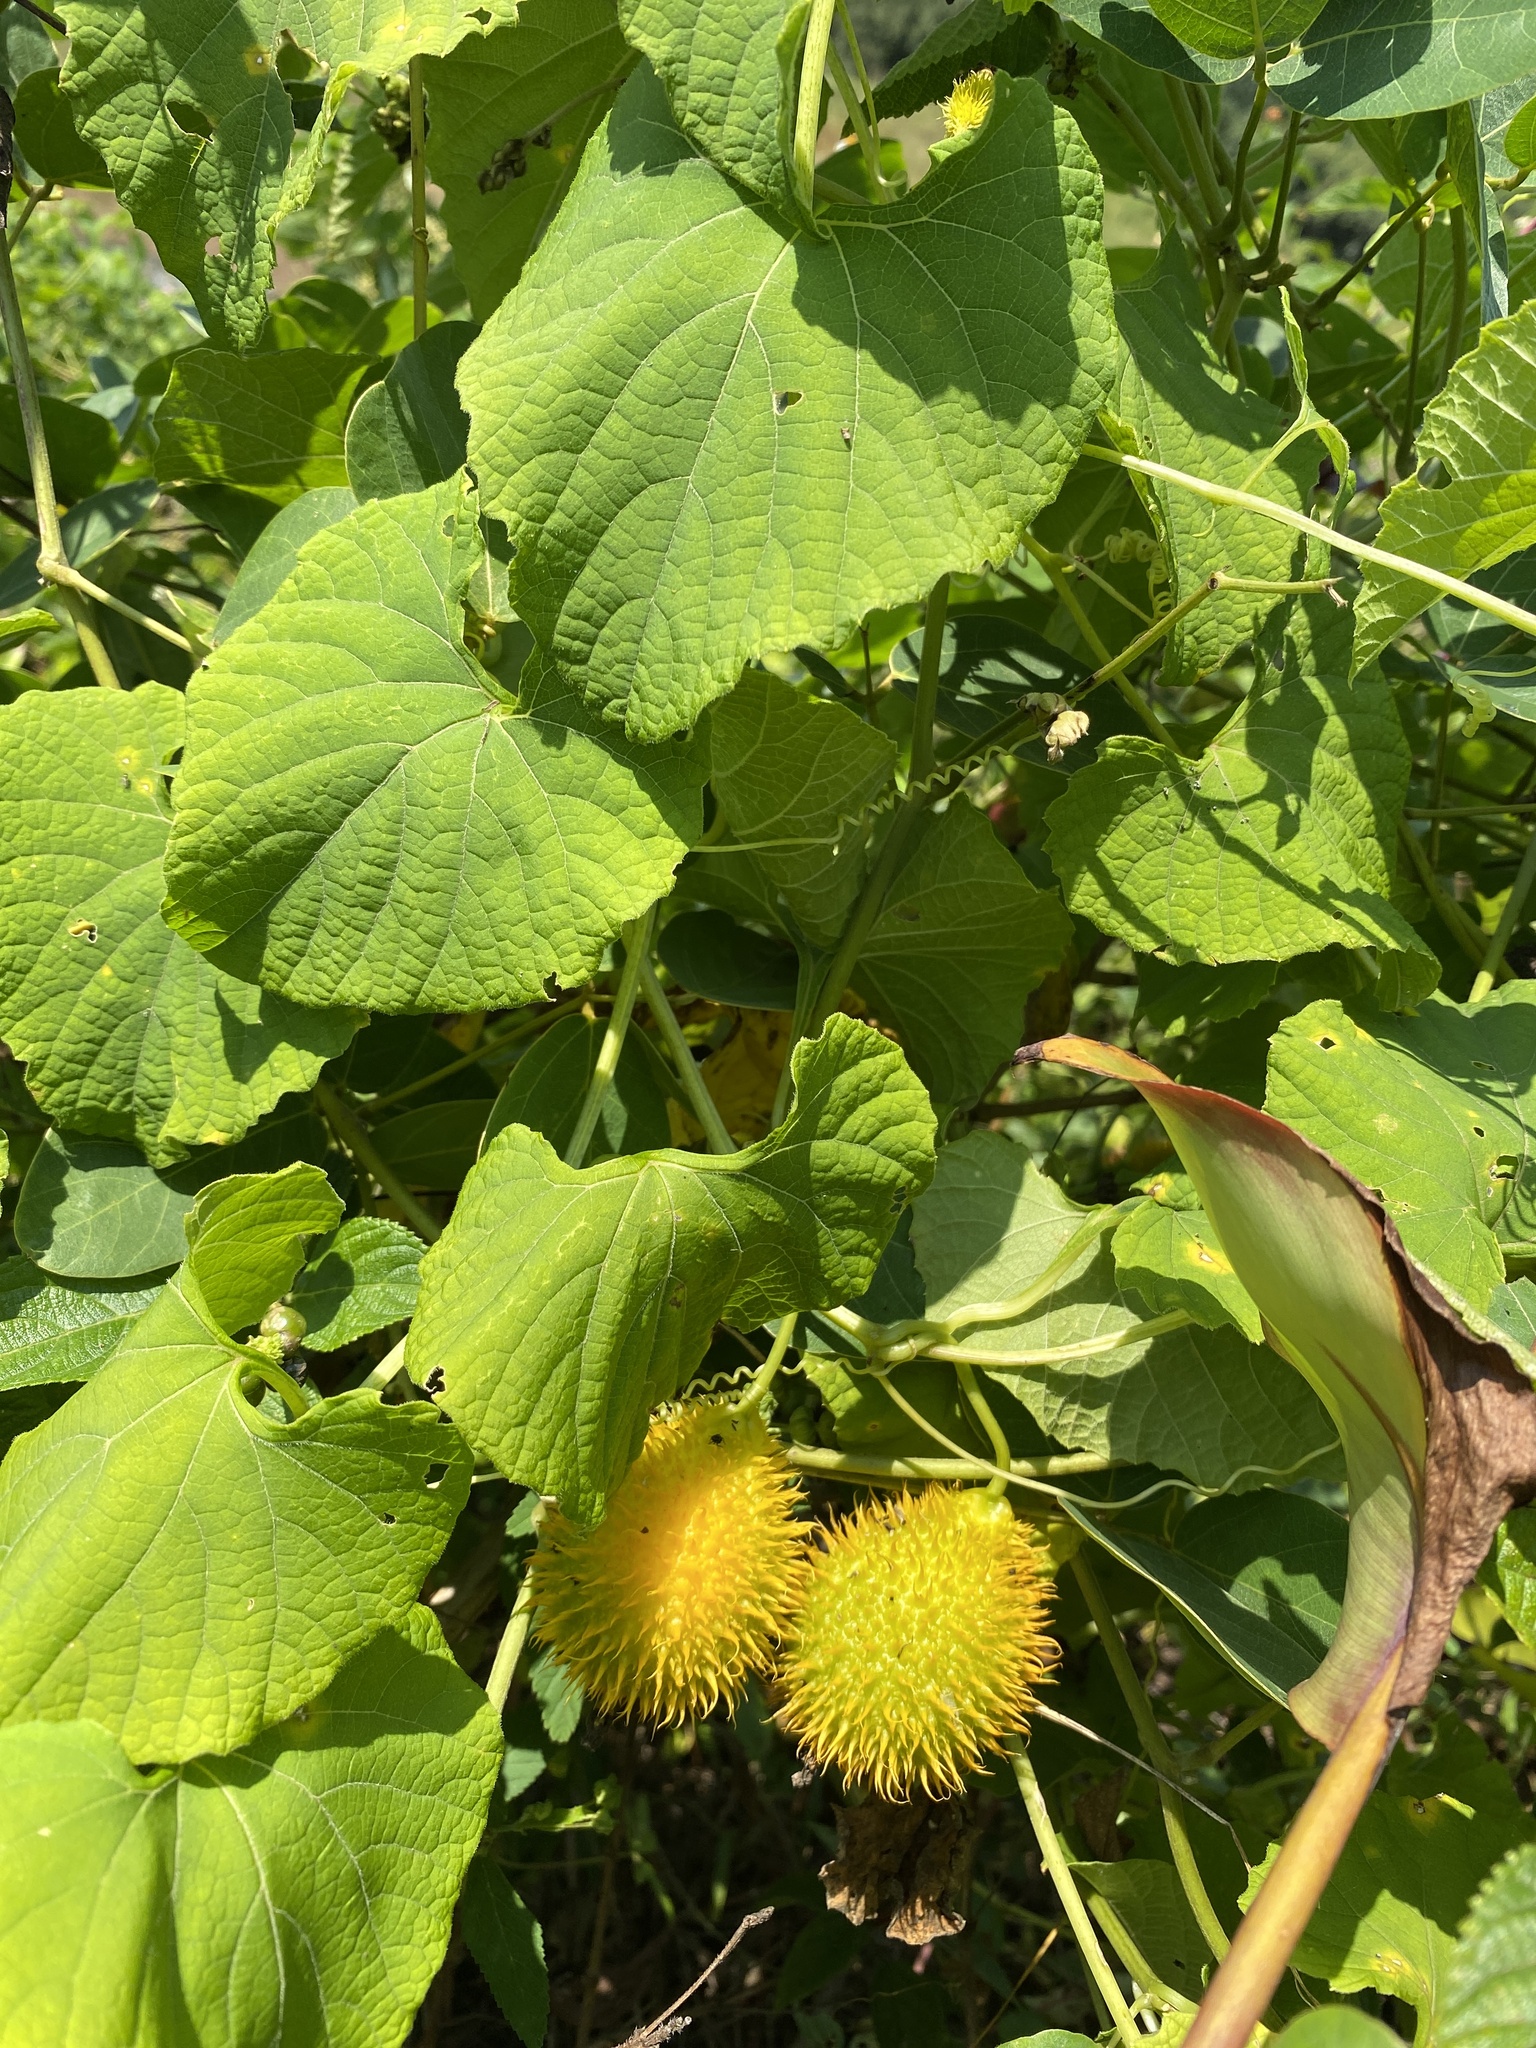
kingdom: Plantae
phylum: Tracheophyta
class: Magnoliopsida
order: Cucurbitales
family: Cucurbitaceae
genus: Momordica
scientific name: Momordica foetida
